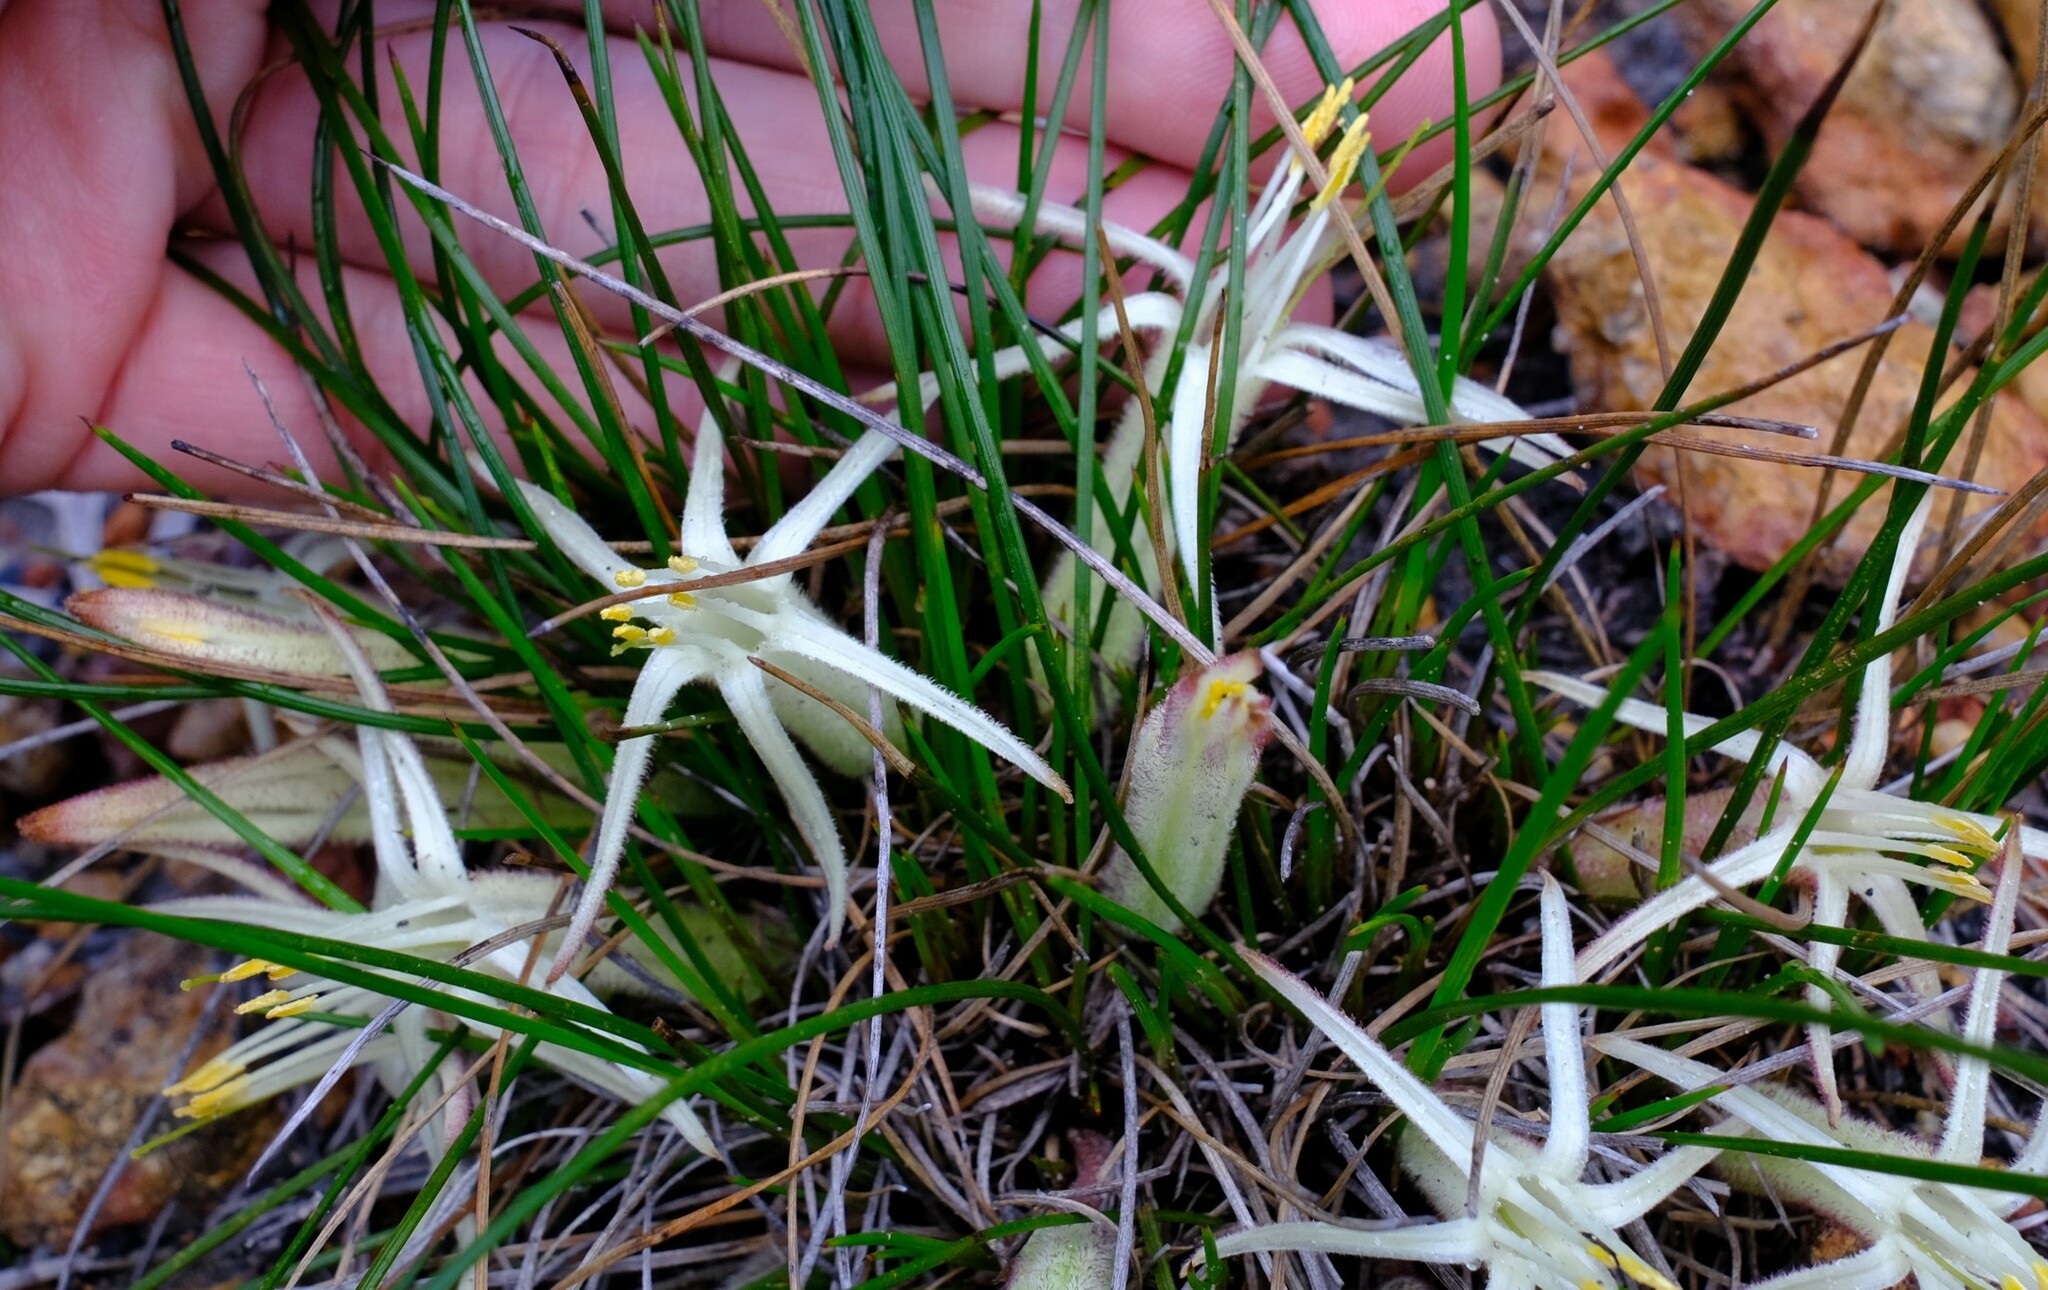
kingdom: Plantae
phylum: Tracheophyta
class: Liliopsida
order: Commelinales
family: Haemodoraceae
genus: Conostylis
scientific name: Conostylis androstemma
